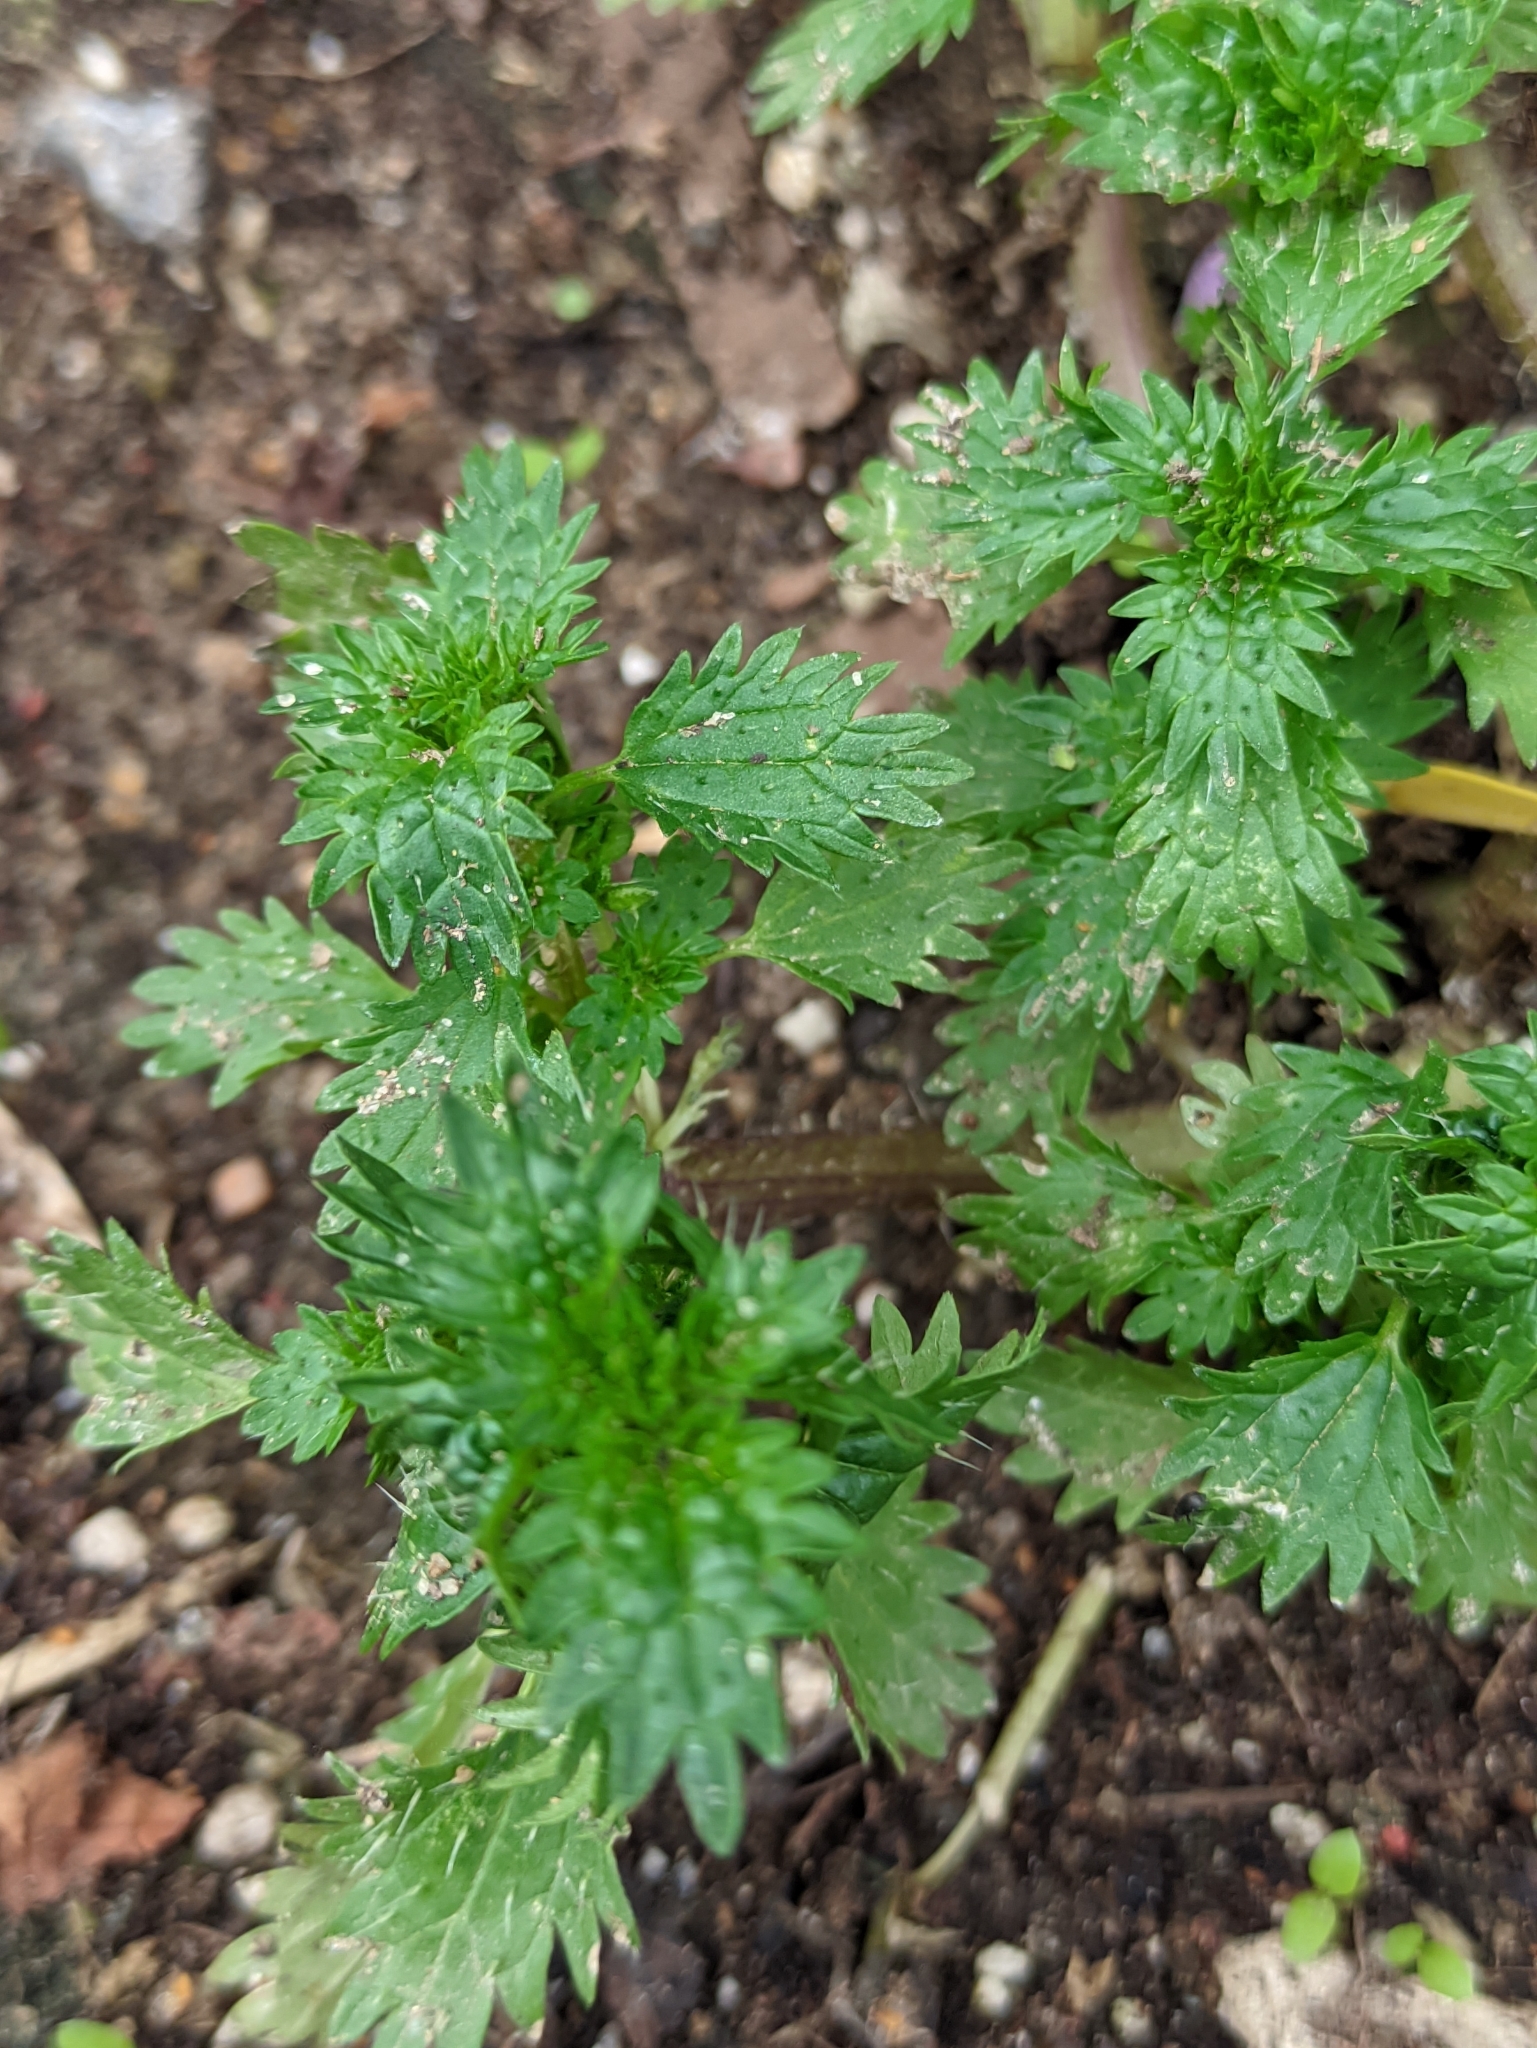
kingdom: Plantae
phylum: Tracheophyta
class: Magnoliopsida
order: Rosales
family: Urticaceae
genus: Urtica
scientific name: Urtica urens
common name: Dwarf nettle
